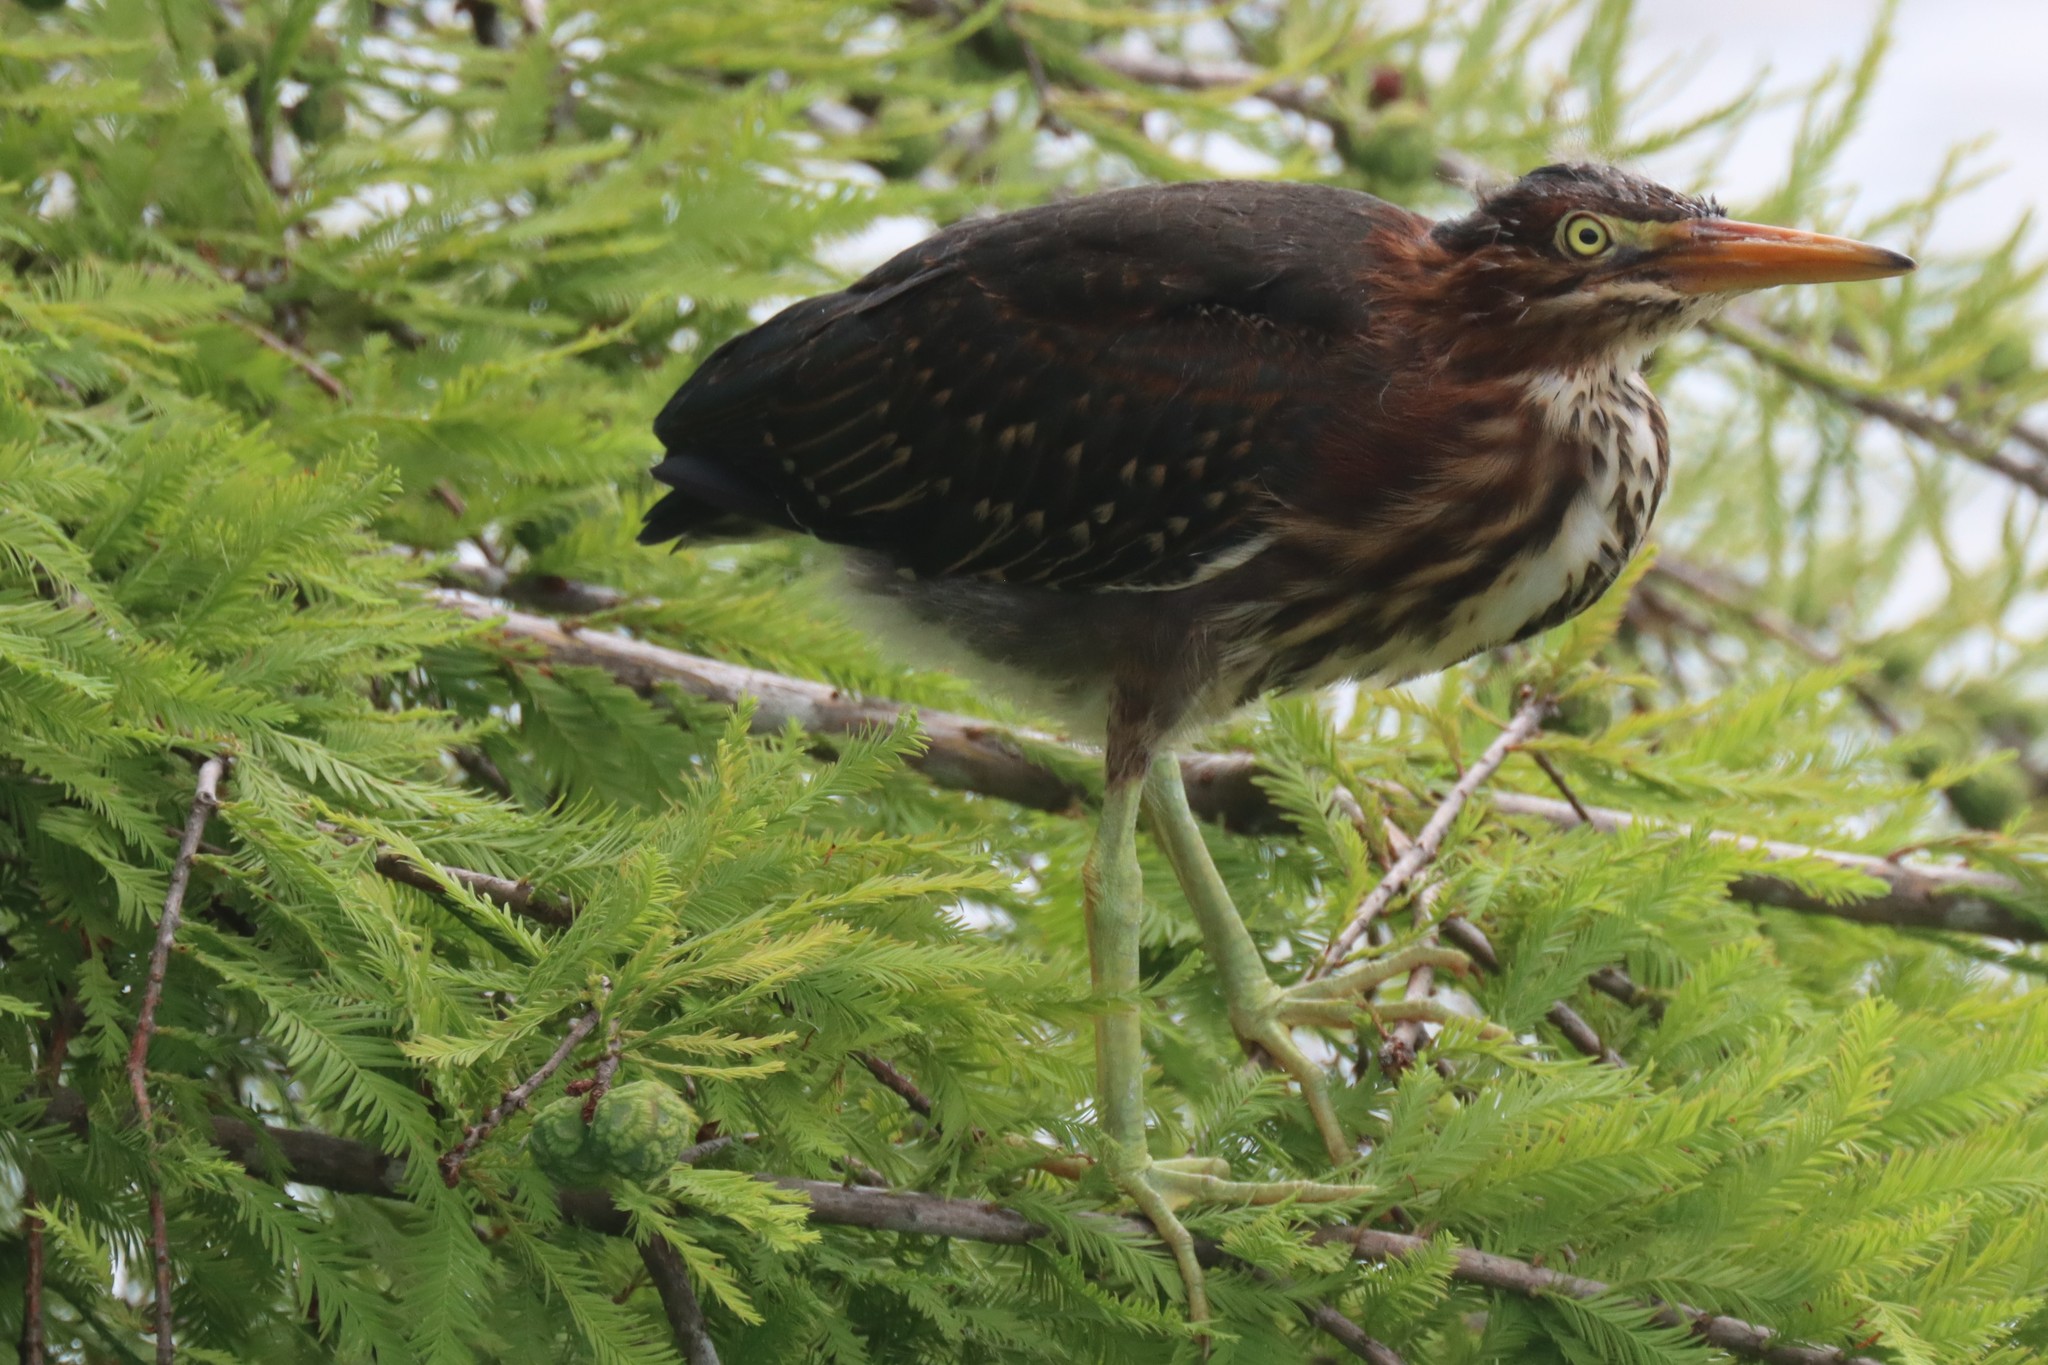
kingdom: Animalia
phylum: Chordata
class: Aves
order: Pelecaniformes
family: Ardeidae
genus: Butorides
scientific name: Butorides virescens
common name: Green heron
